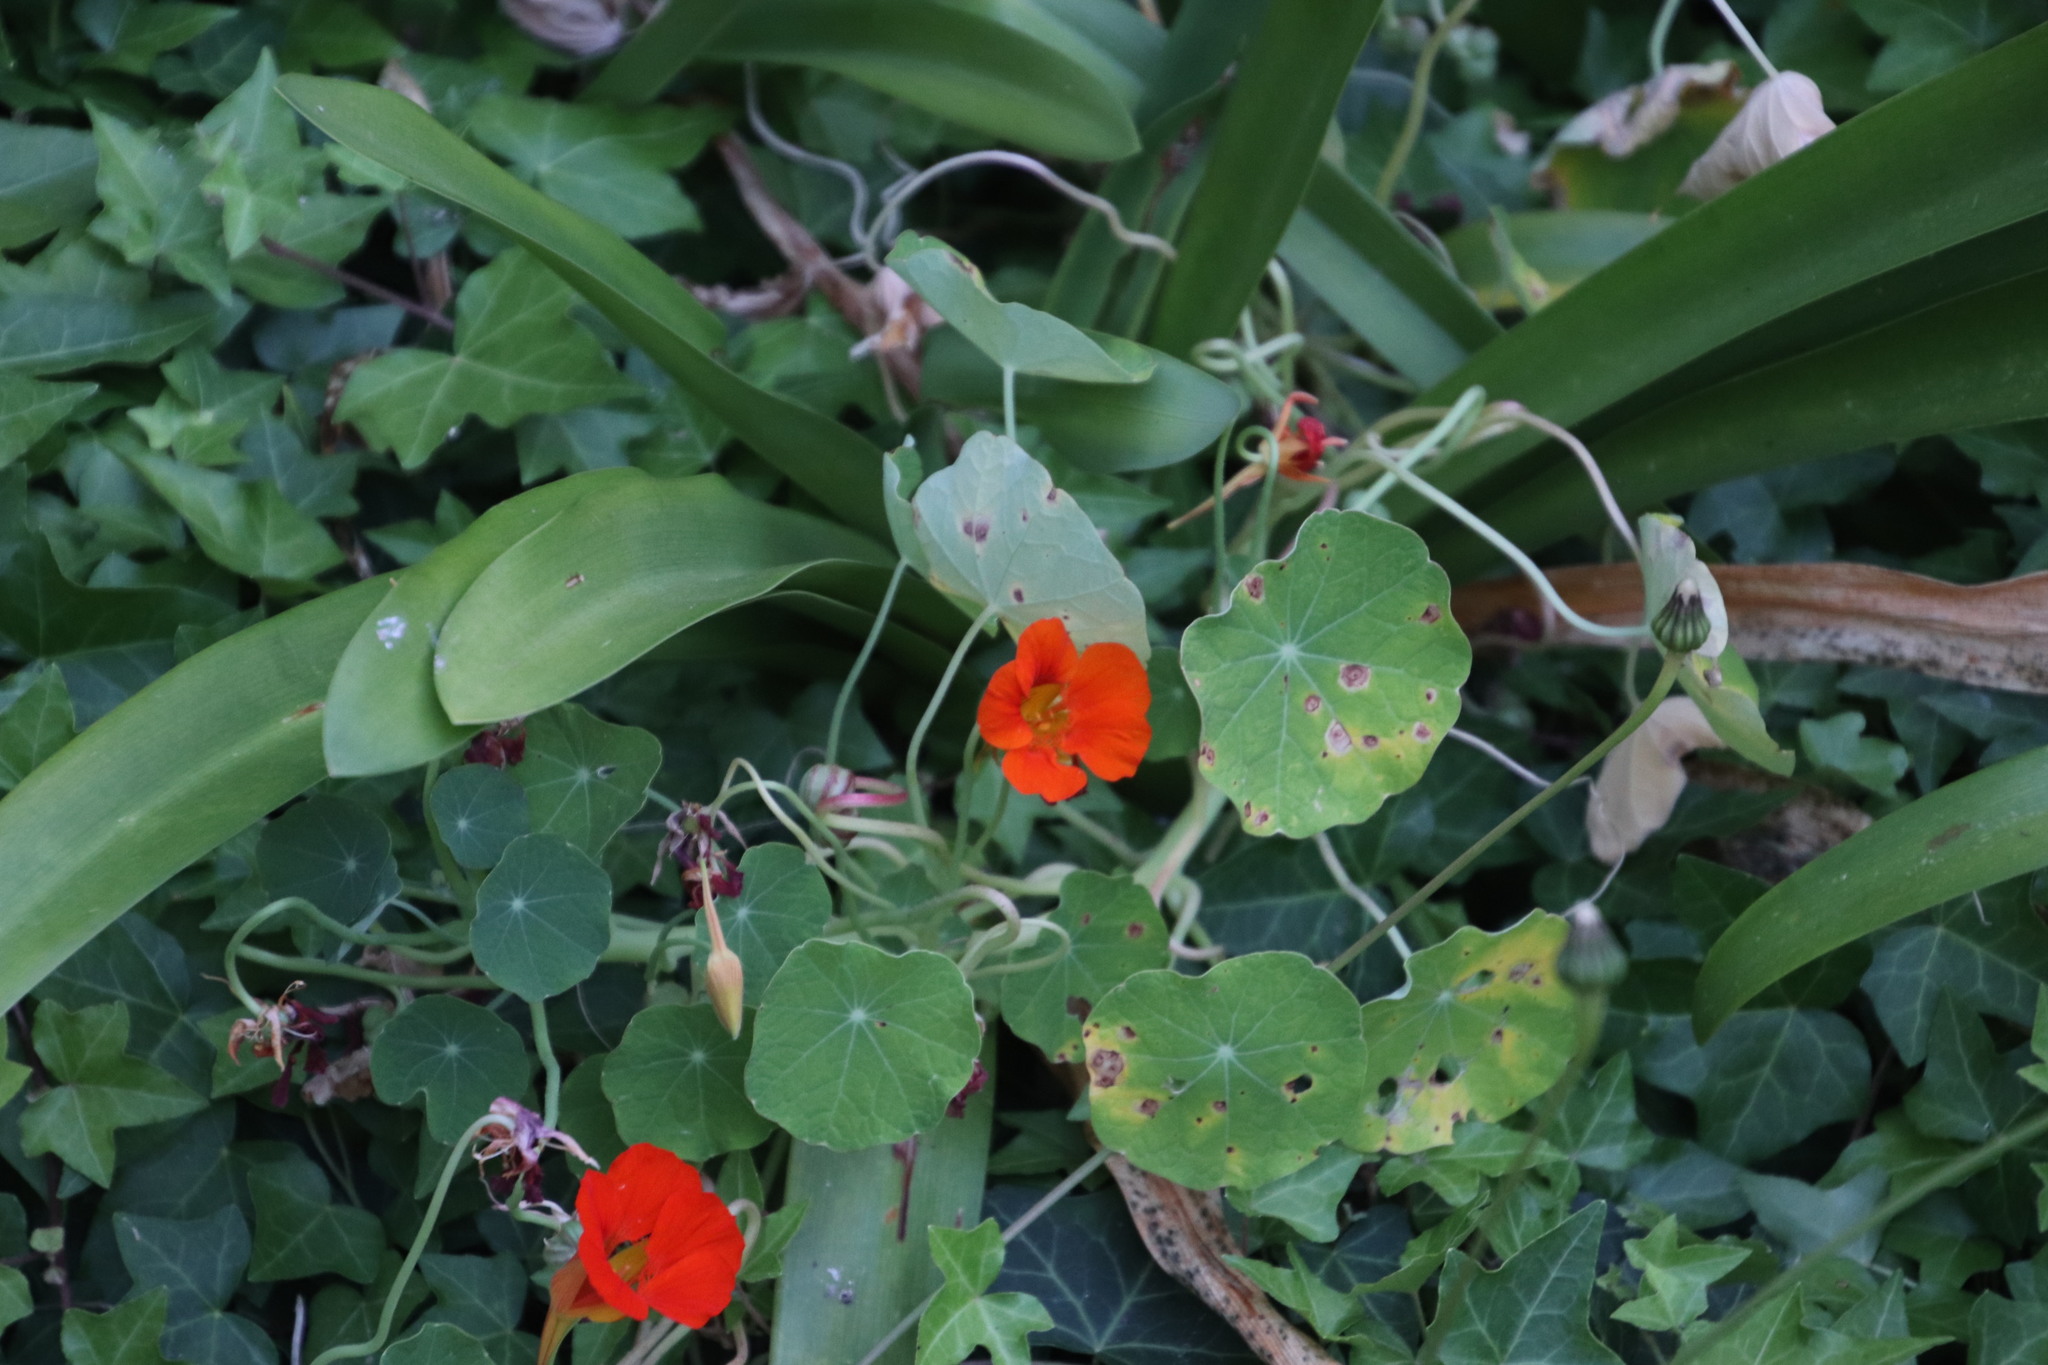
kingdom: Plantae
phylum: Tracheophyta
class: Magnoliopsida
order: Brassicales
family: Tropaeolaceae
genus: Tropaeolum
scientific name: Tropaeolum majus
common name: Nasturtium
